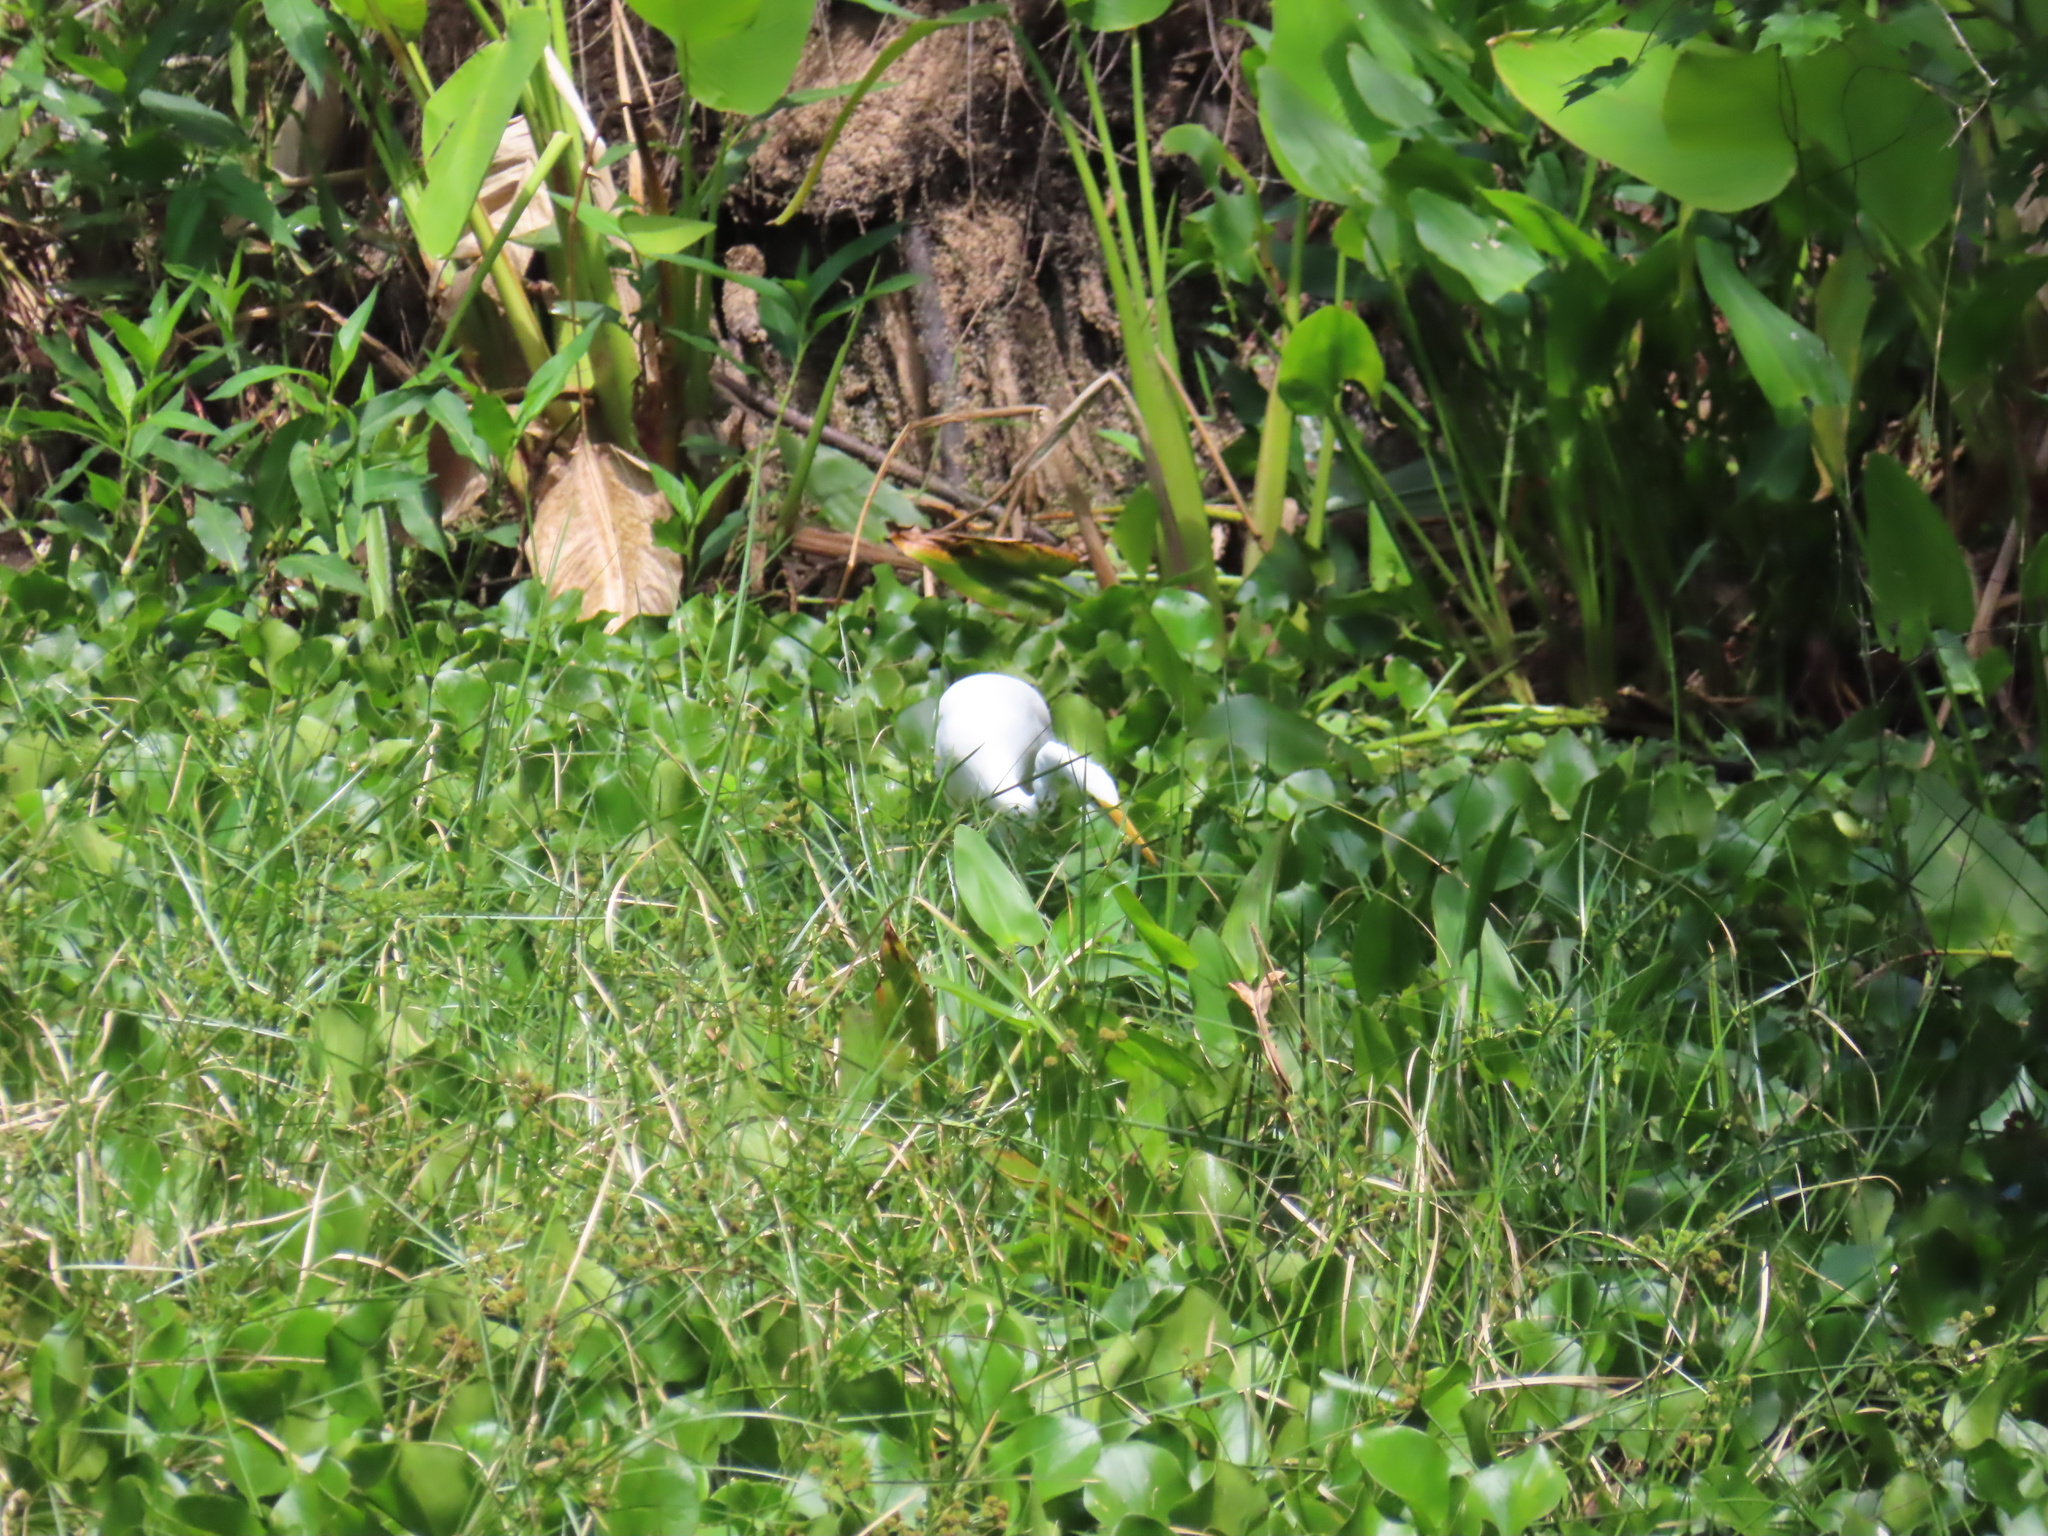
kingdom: Animalia
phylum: Chordata
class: Aves
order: Pelecaniformes
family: Ardeidae
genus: Ardea
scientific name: Ardea alba
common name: Great egret
